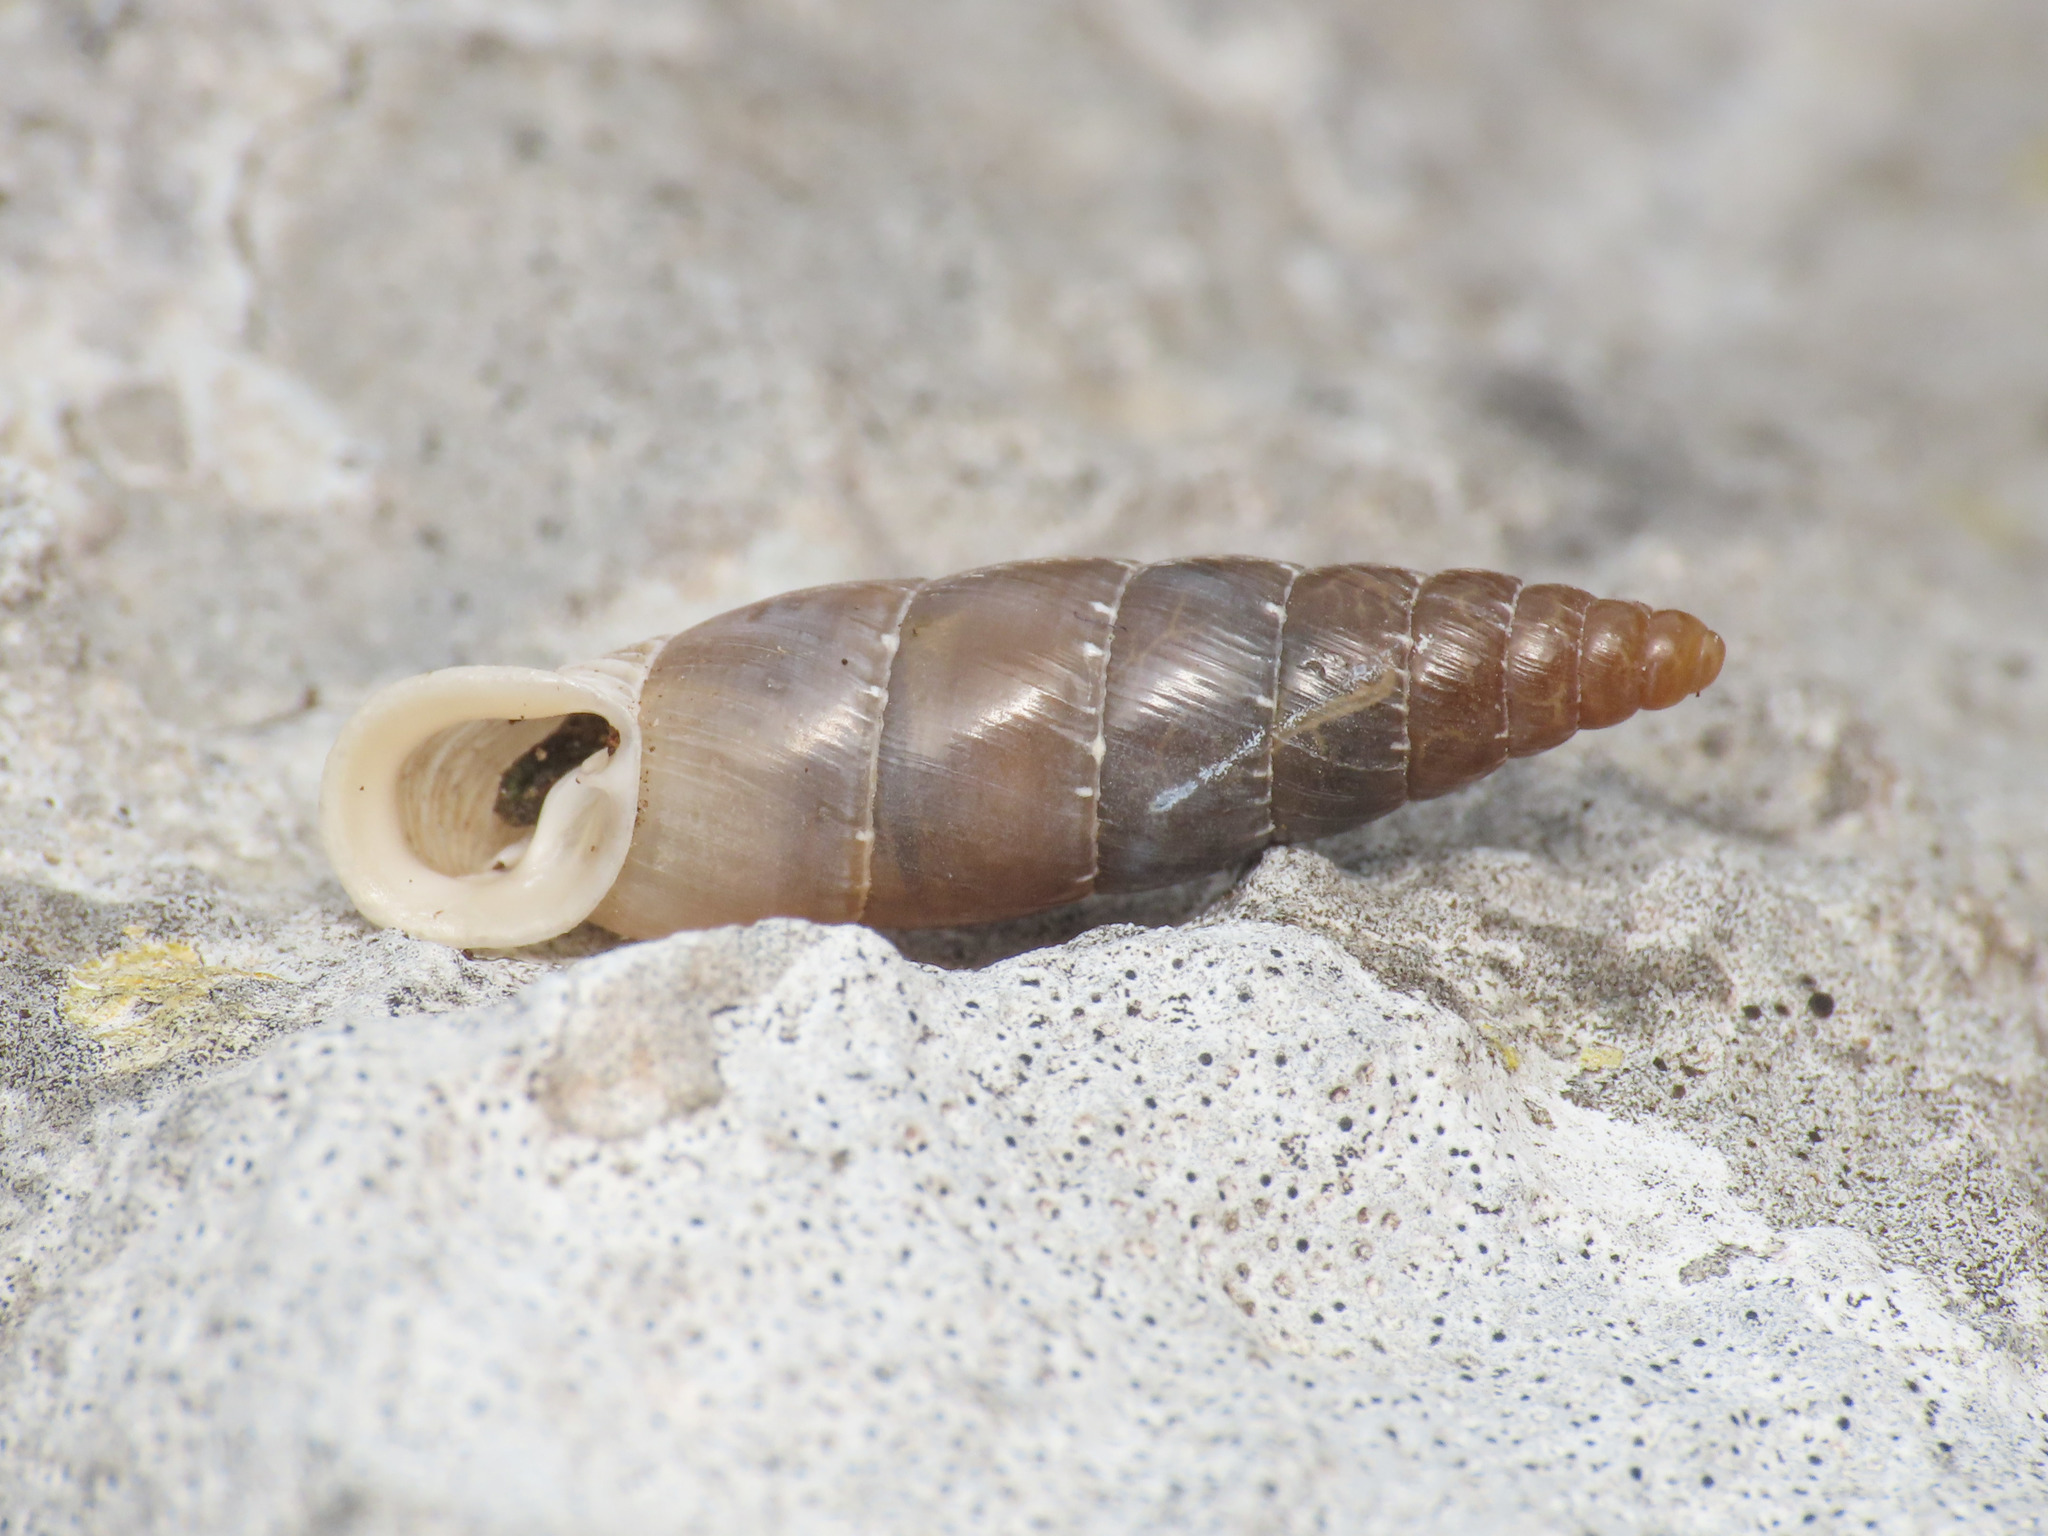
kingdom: Animalia
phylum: Mollusca
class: Gastropoda
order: Stylommatophora
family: Clausiliidae
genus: Leucostigma
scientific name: Leucostigma candidescens
